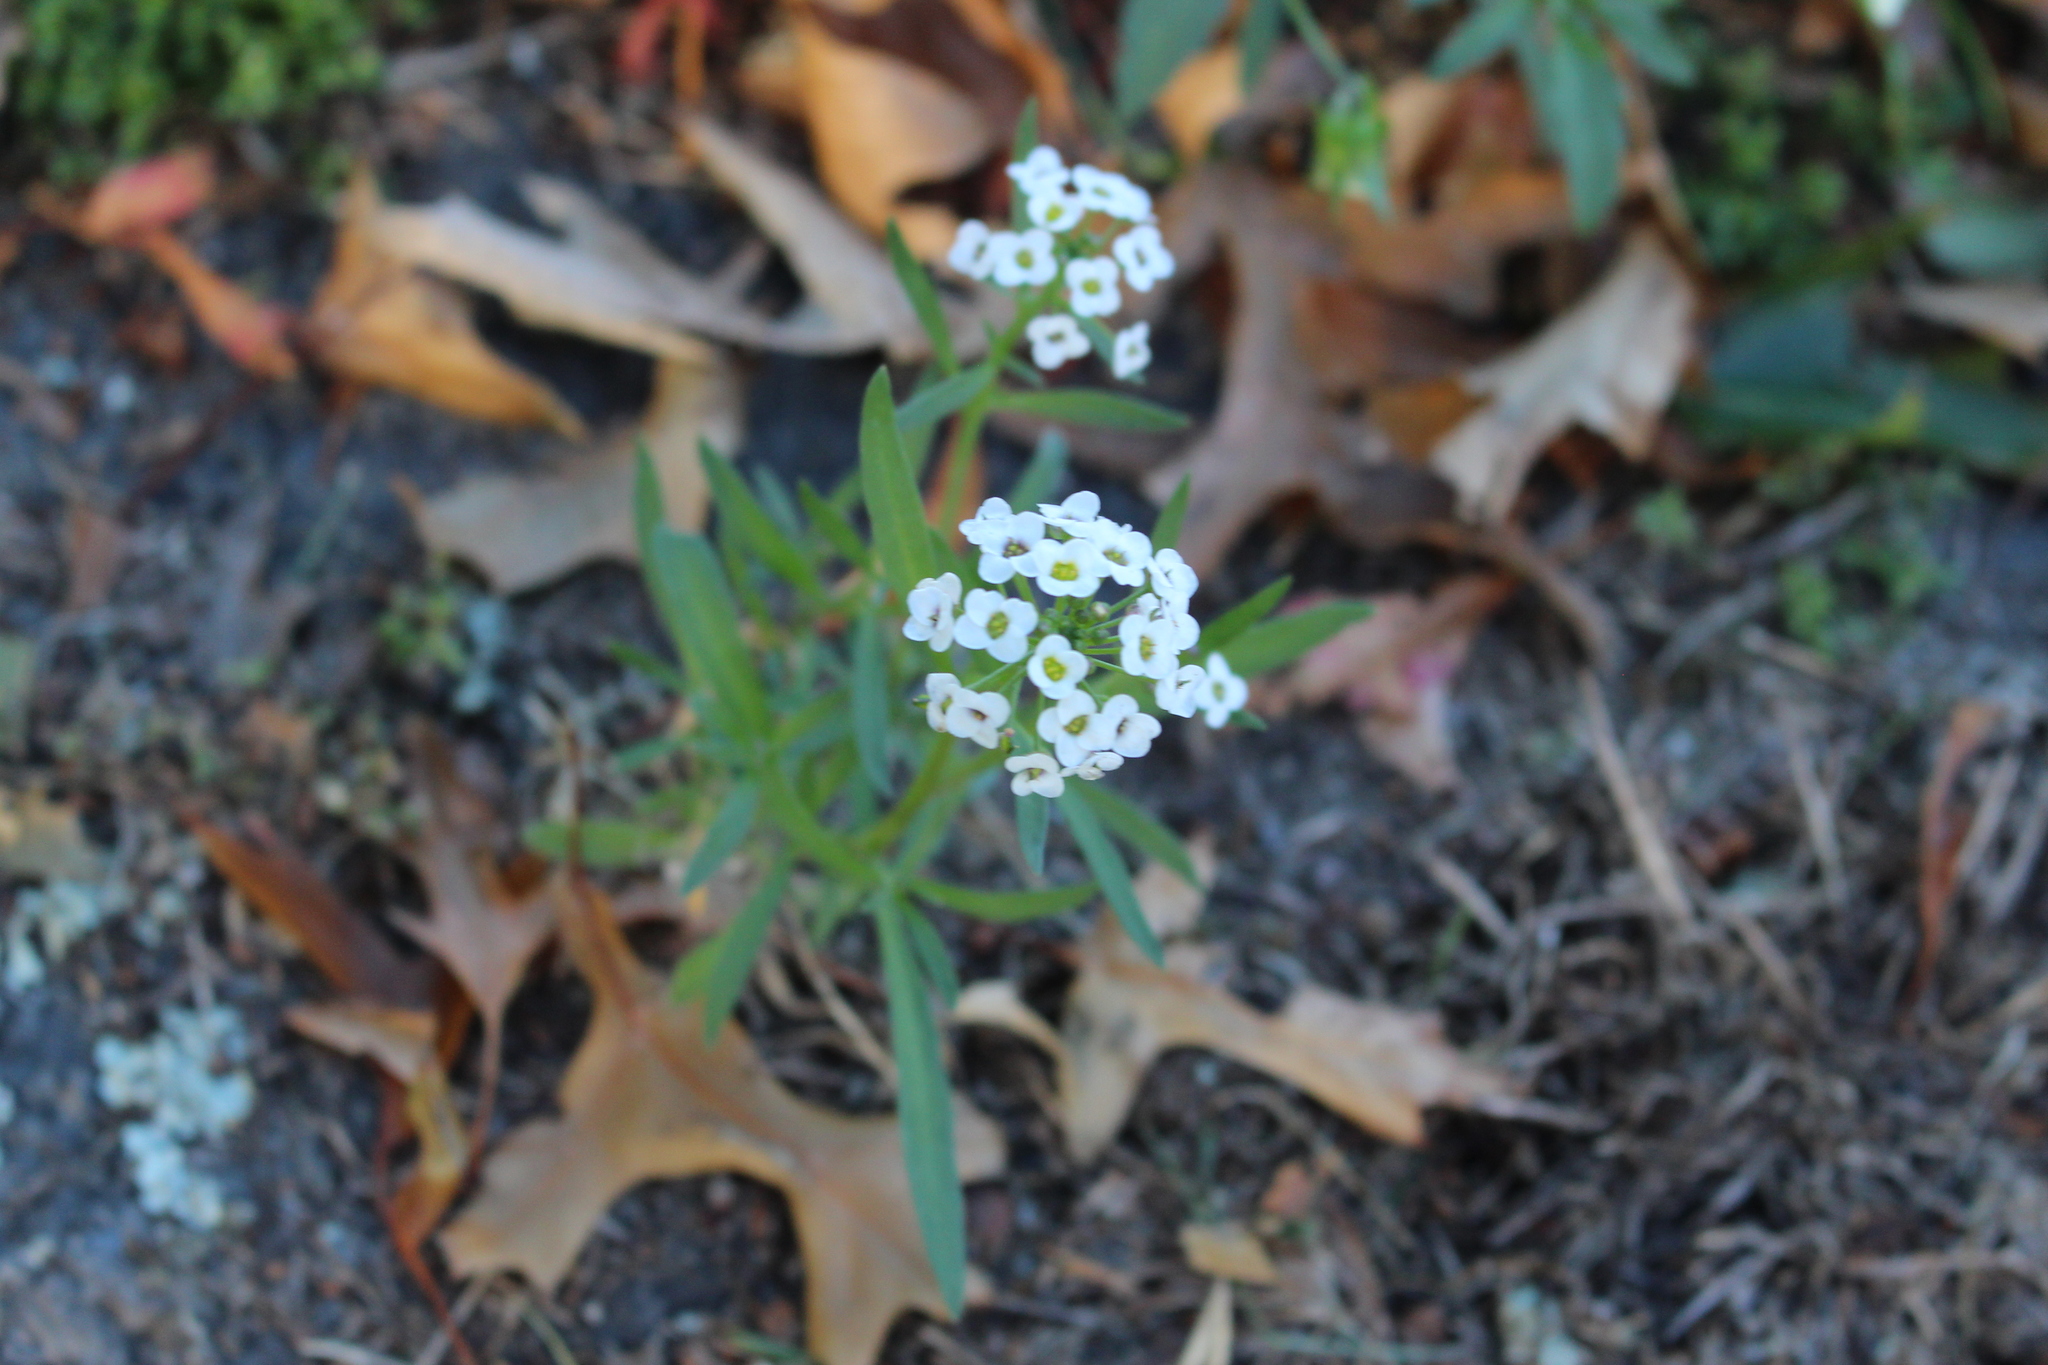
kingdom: Plantae
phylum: Tracheophyta
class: Magnoliopsida
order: Brassicales
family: Brassicaceae
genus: Lobularia
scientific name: Lobularia maritima
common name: Sweet alison
